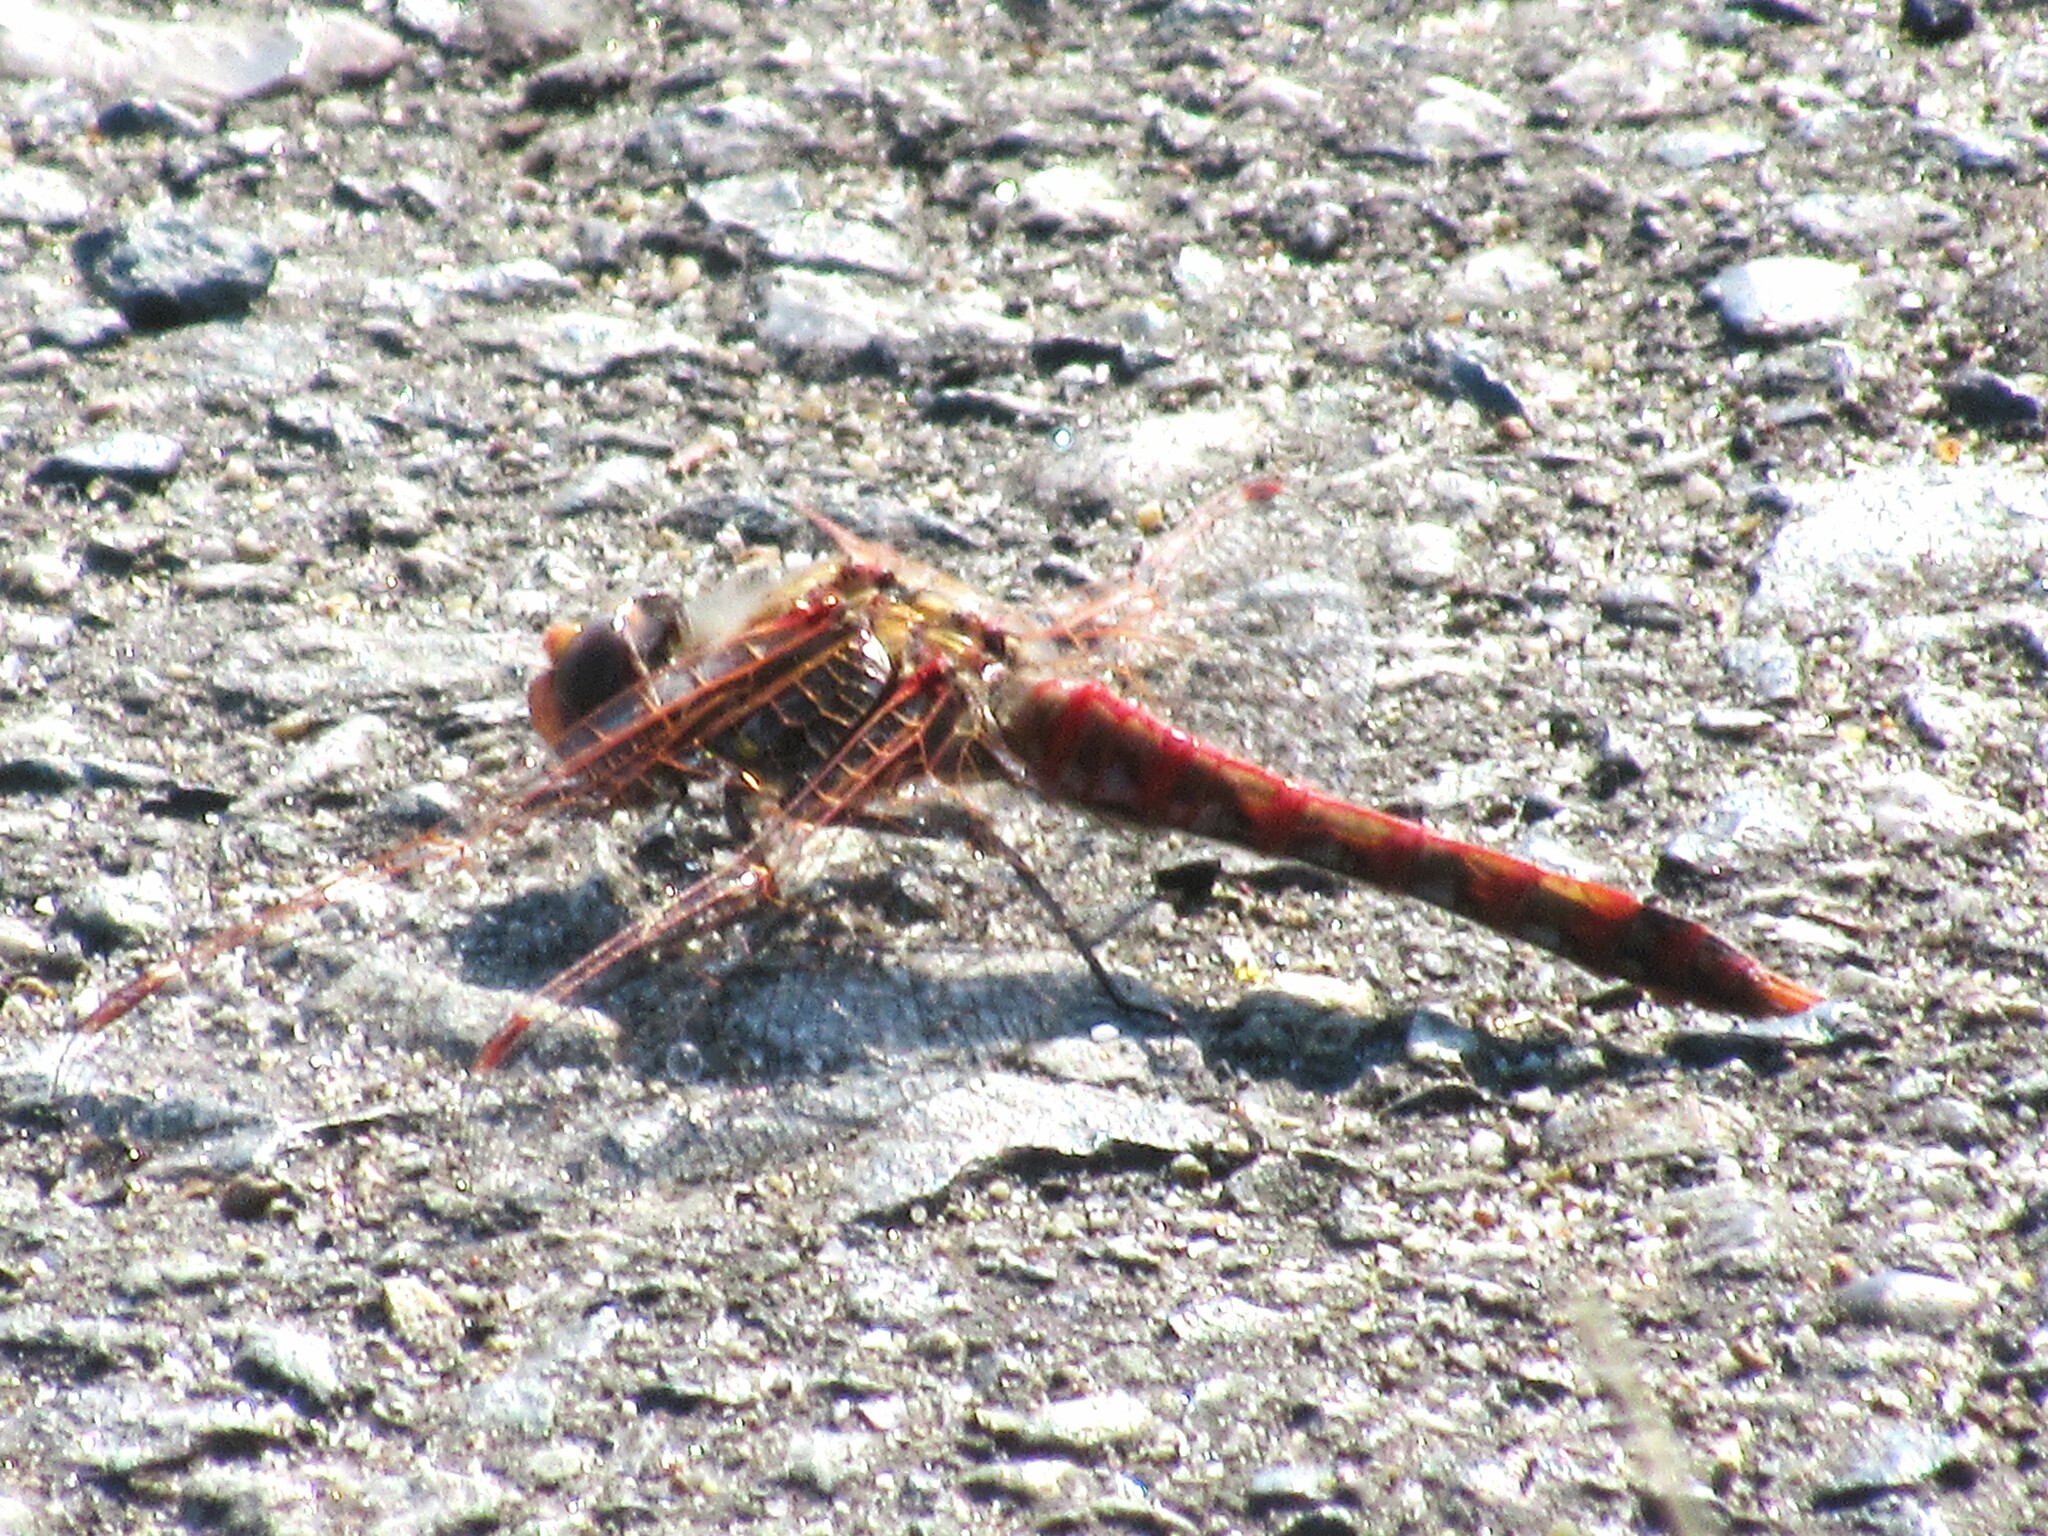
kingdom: Animalia
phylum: Arthropoda
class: Insecta
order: Odonata
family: Libellulidae
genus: Sympetrum
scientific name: Sympetrum corruptum
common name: Variegated meadowhawk
